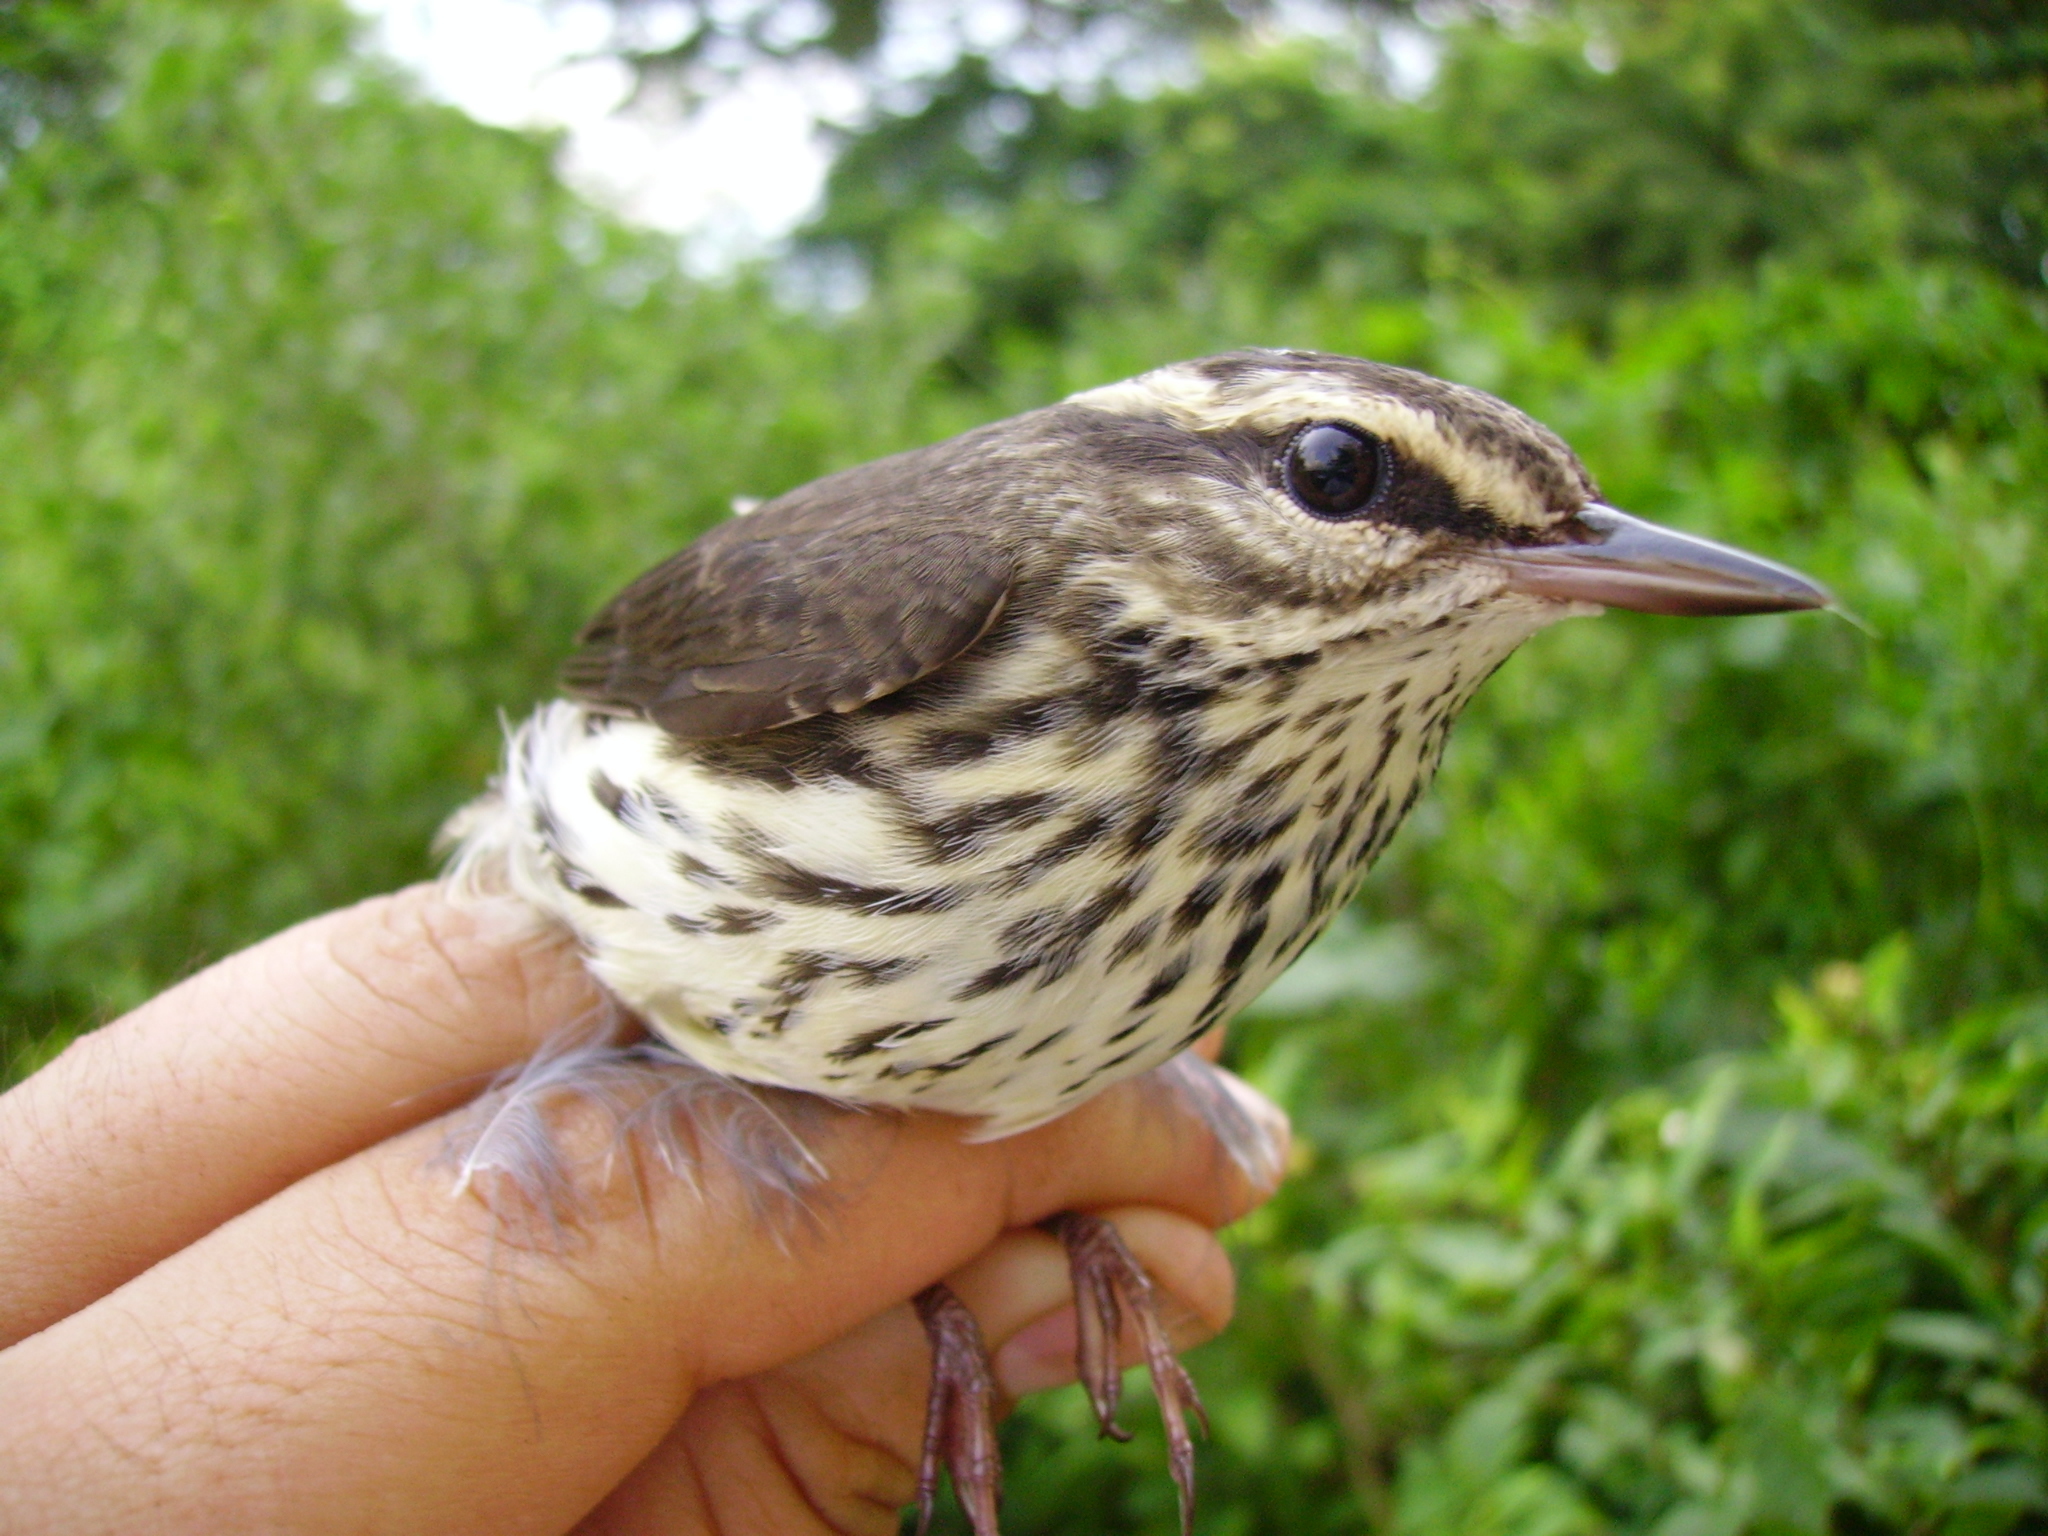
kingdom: Animalia
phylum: Chordata
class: Aves
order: Passeriformes
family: Parulidae
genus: Parkesia
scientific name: Parkesia noveboracensis
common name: Northern waterthrush
